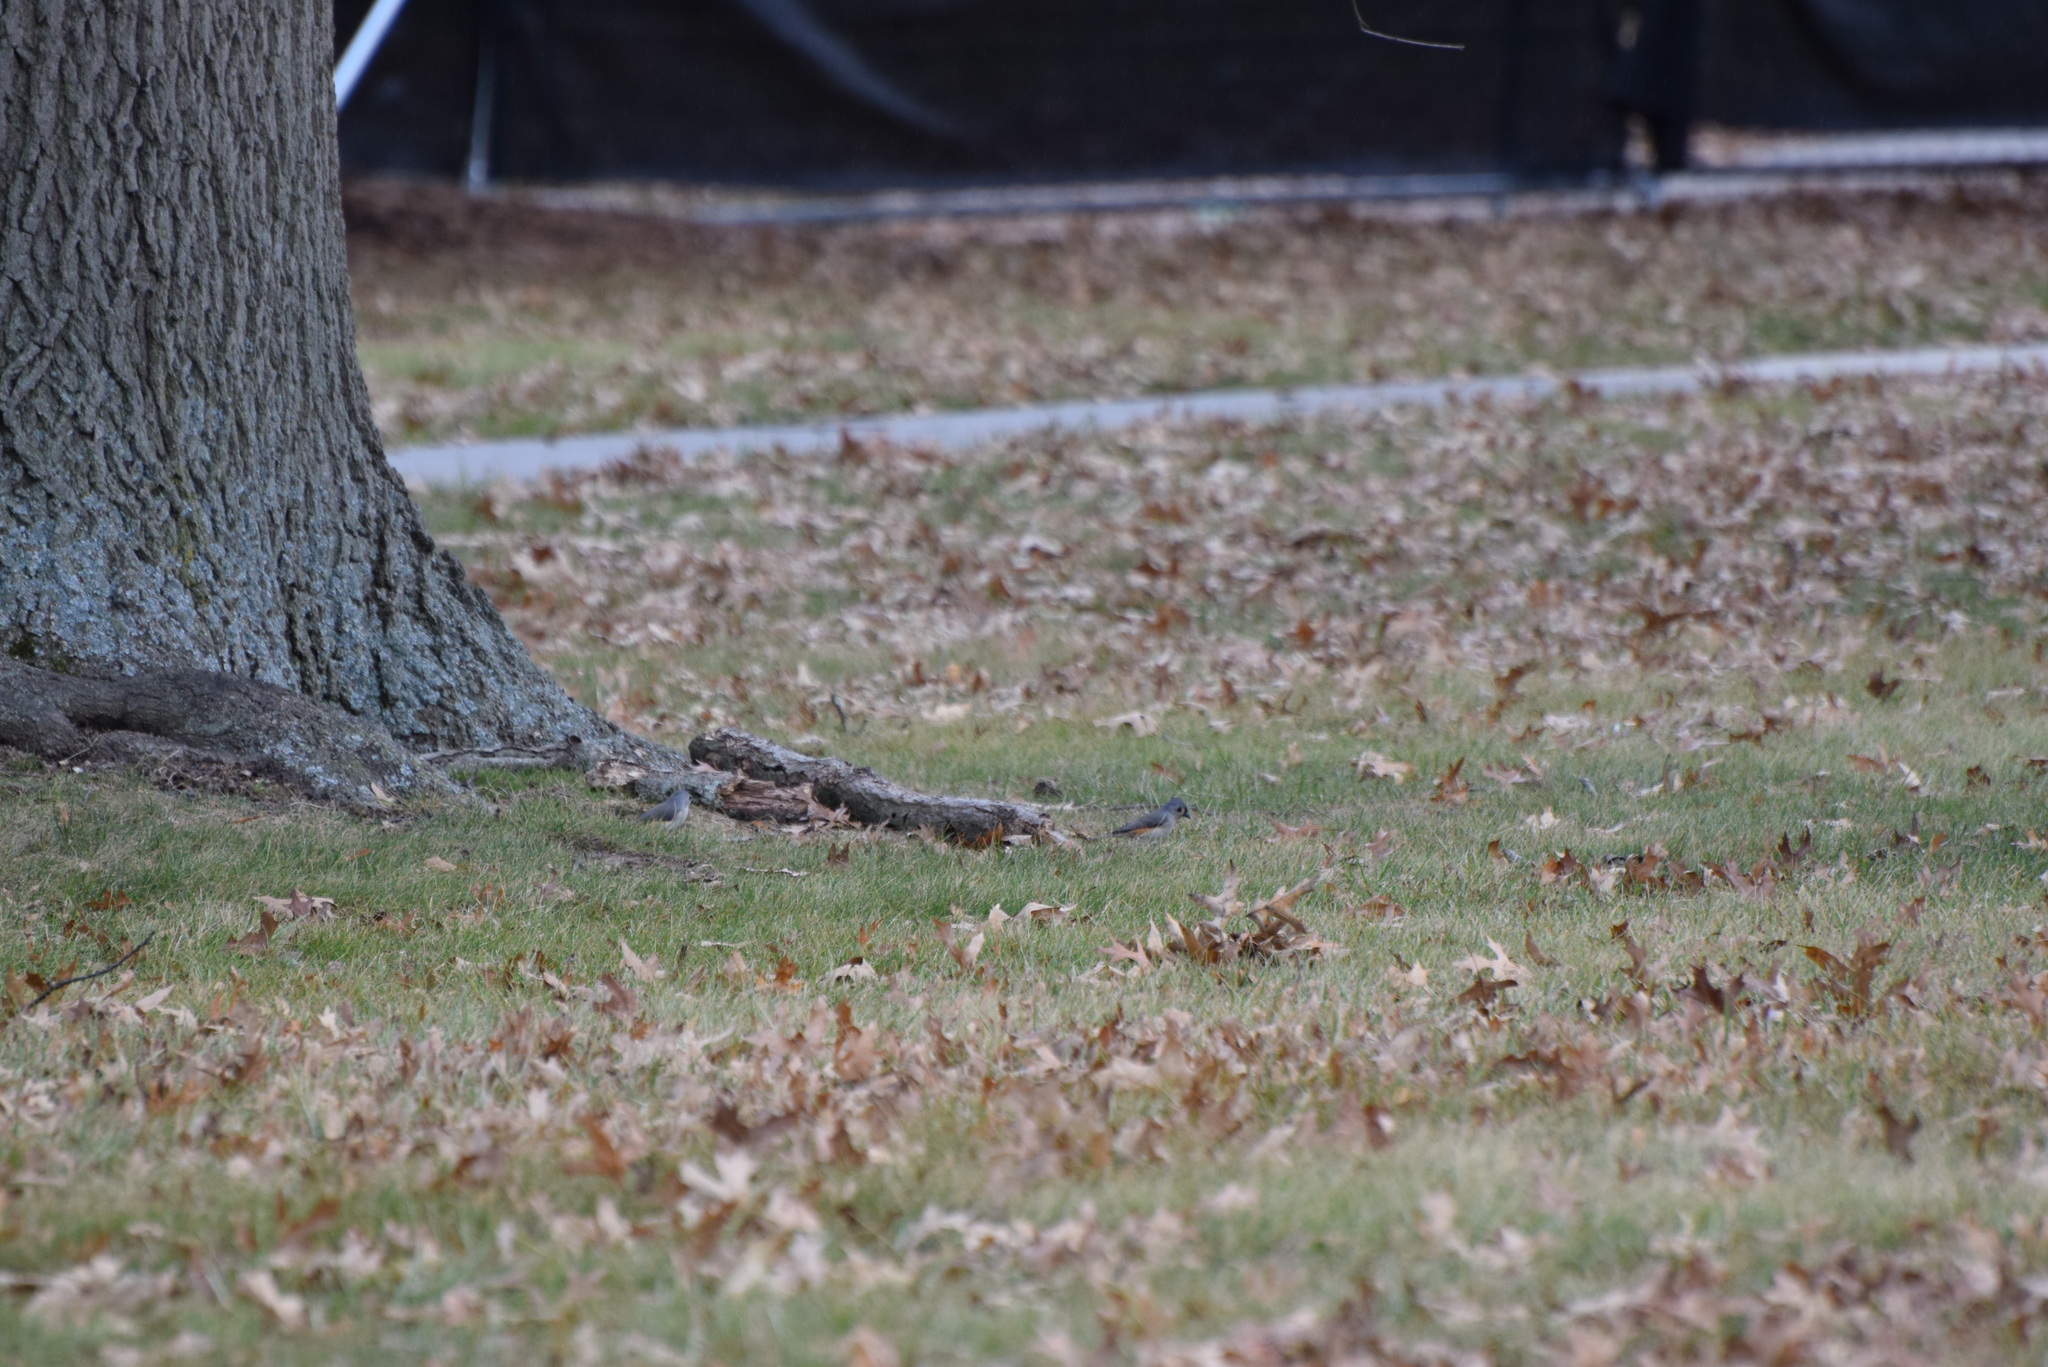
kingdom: Animalia
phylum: Chordata
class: Aves
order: Passeriformes
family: Paridae
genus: Baeolophus
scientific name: Baeolophus bicolor
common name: Tufted titmouse
